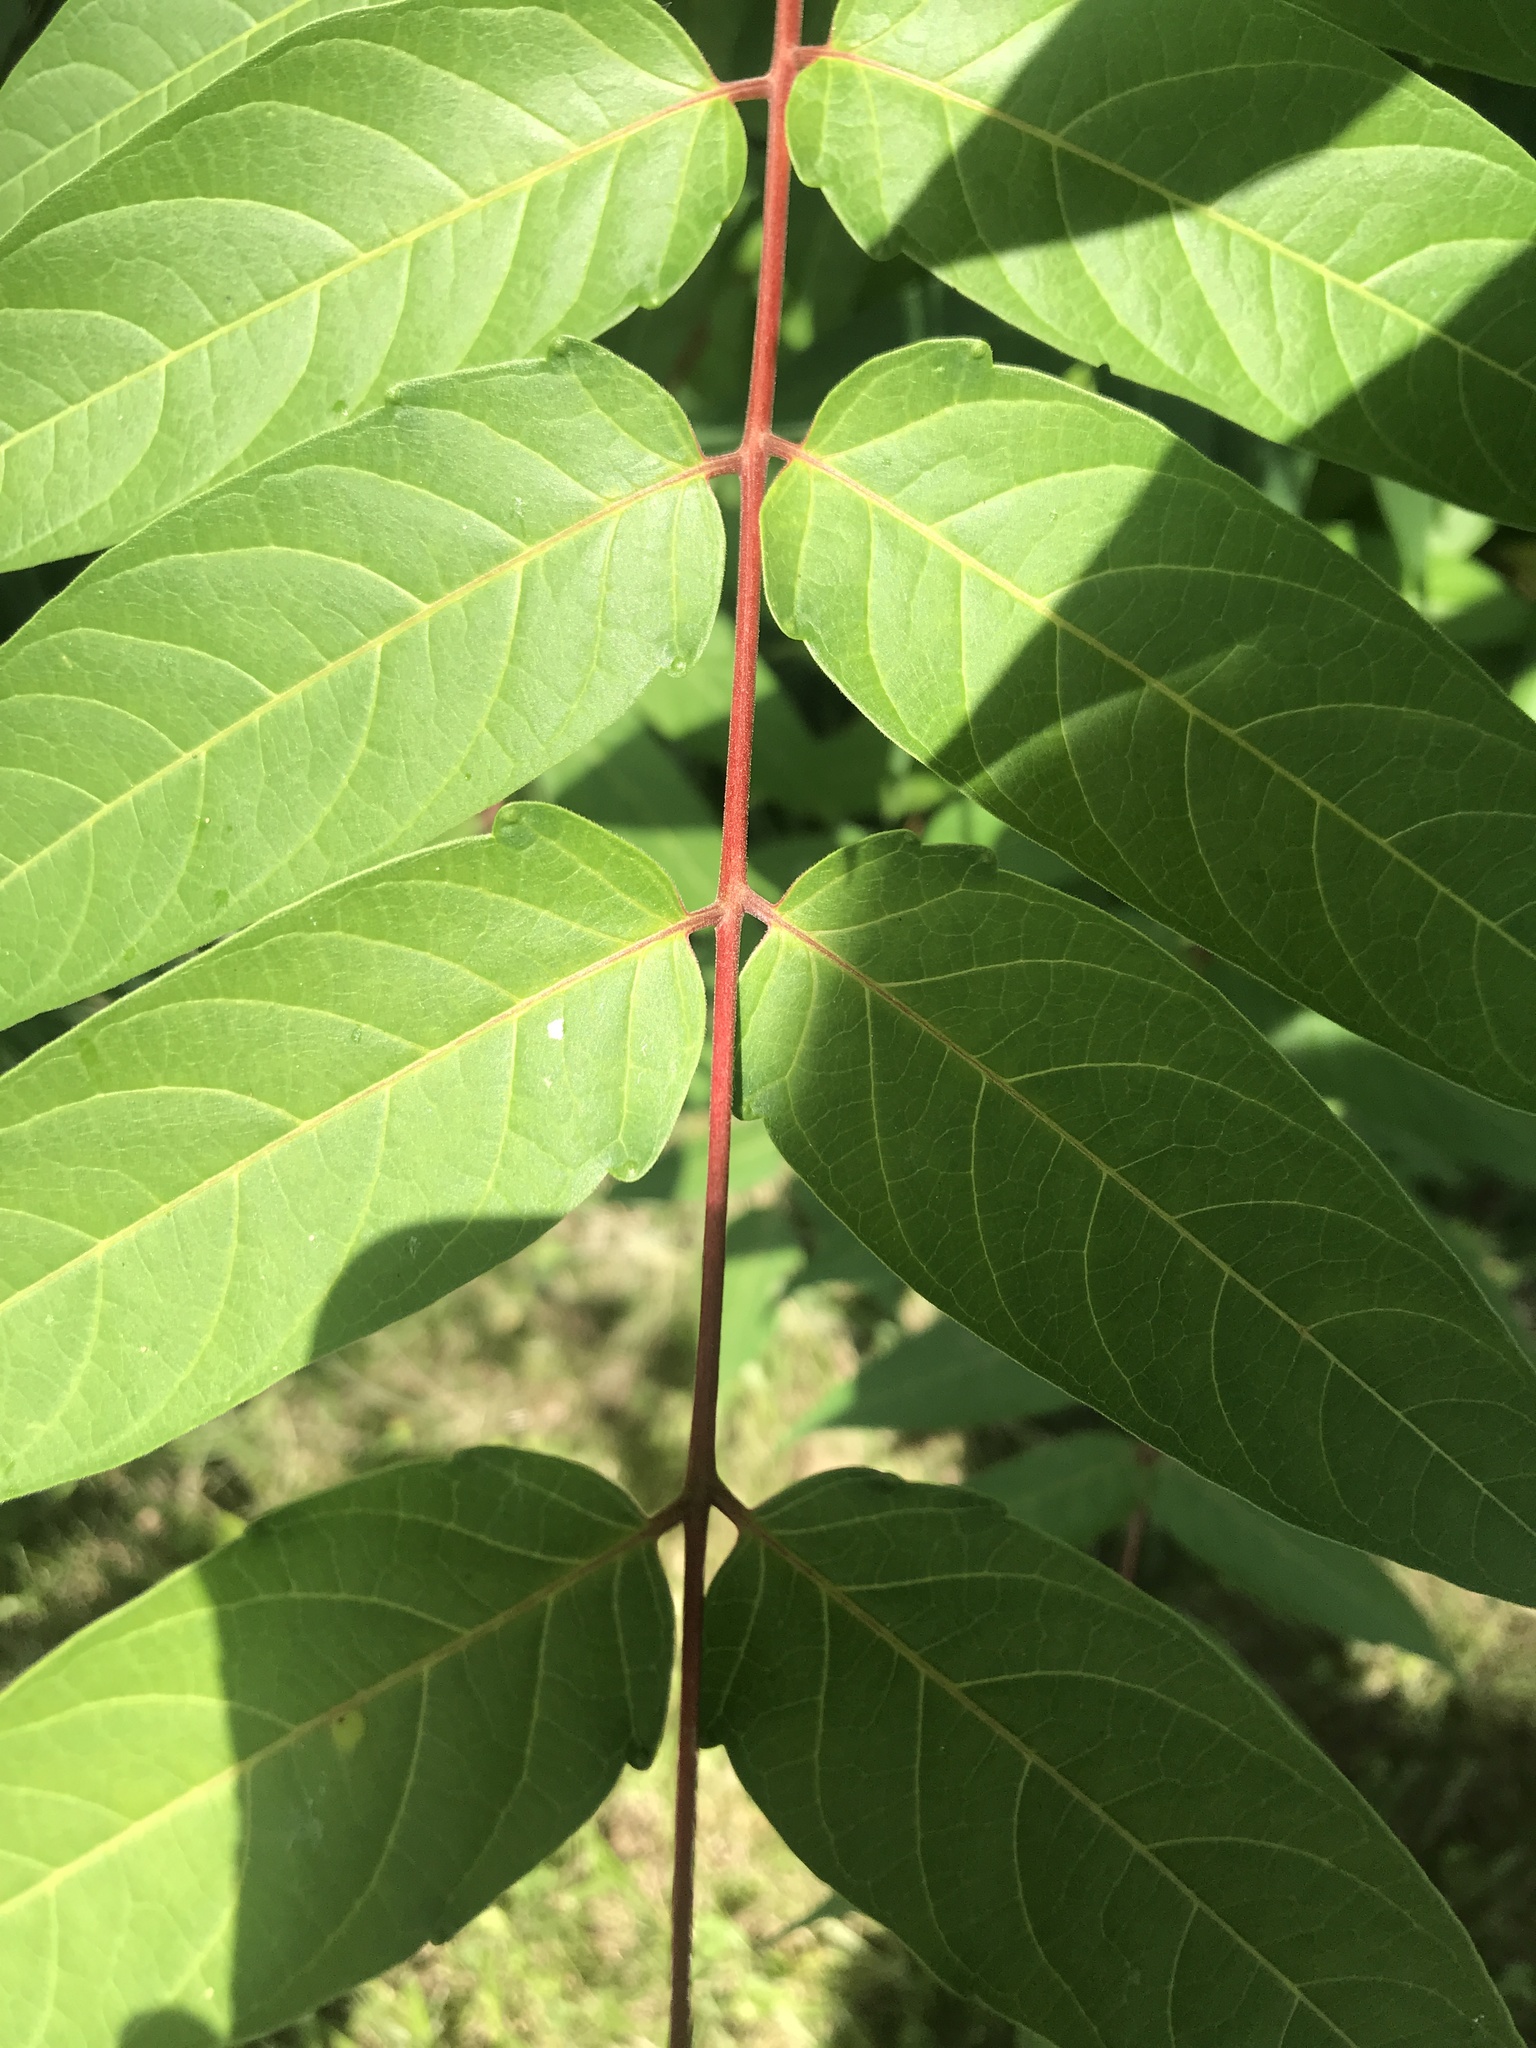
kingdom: Plantae
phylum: Tracheophyta
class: Magnoliopsida
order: Sapindales
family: Simaroubaceae
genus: Ailanthus
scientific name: Ailanthus altissima
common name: Tree-of-heaven
